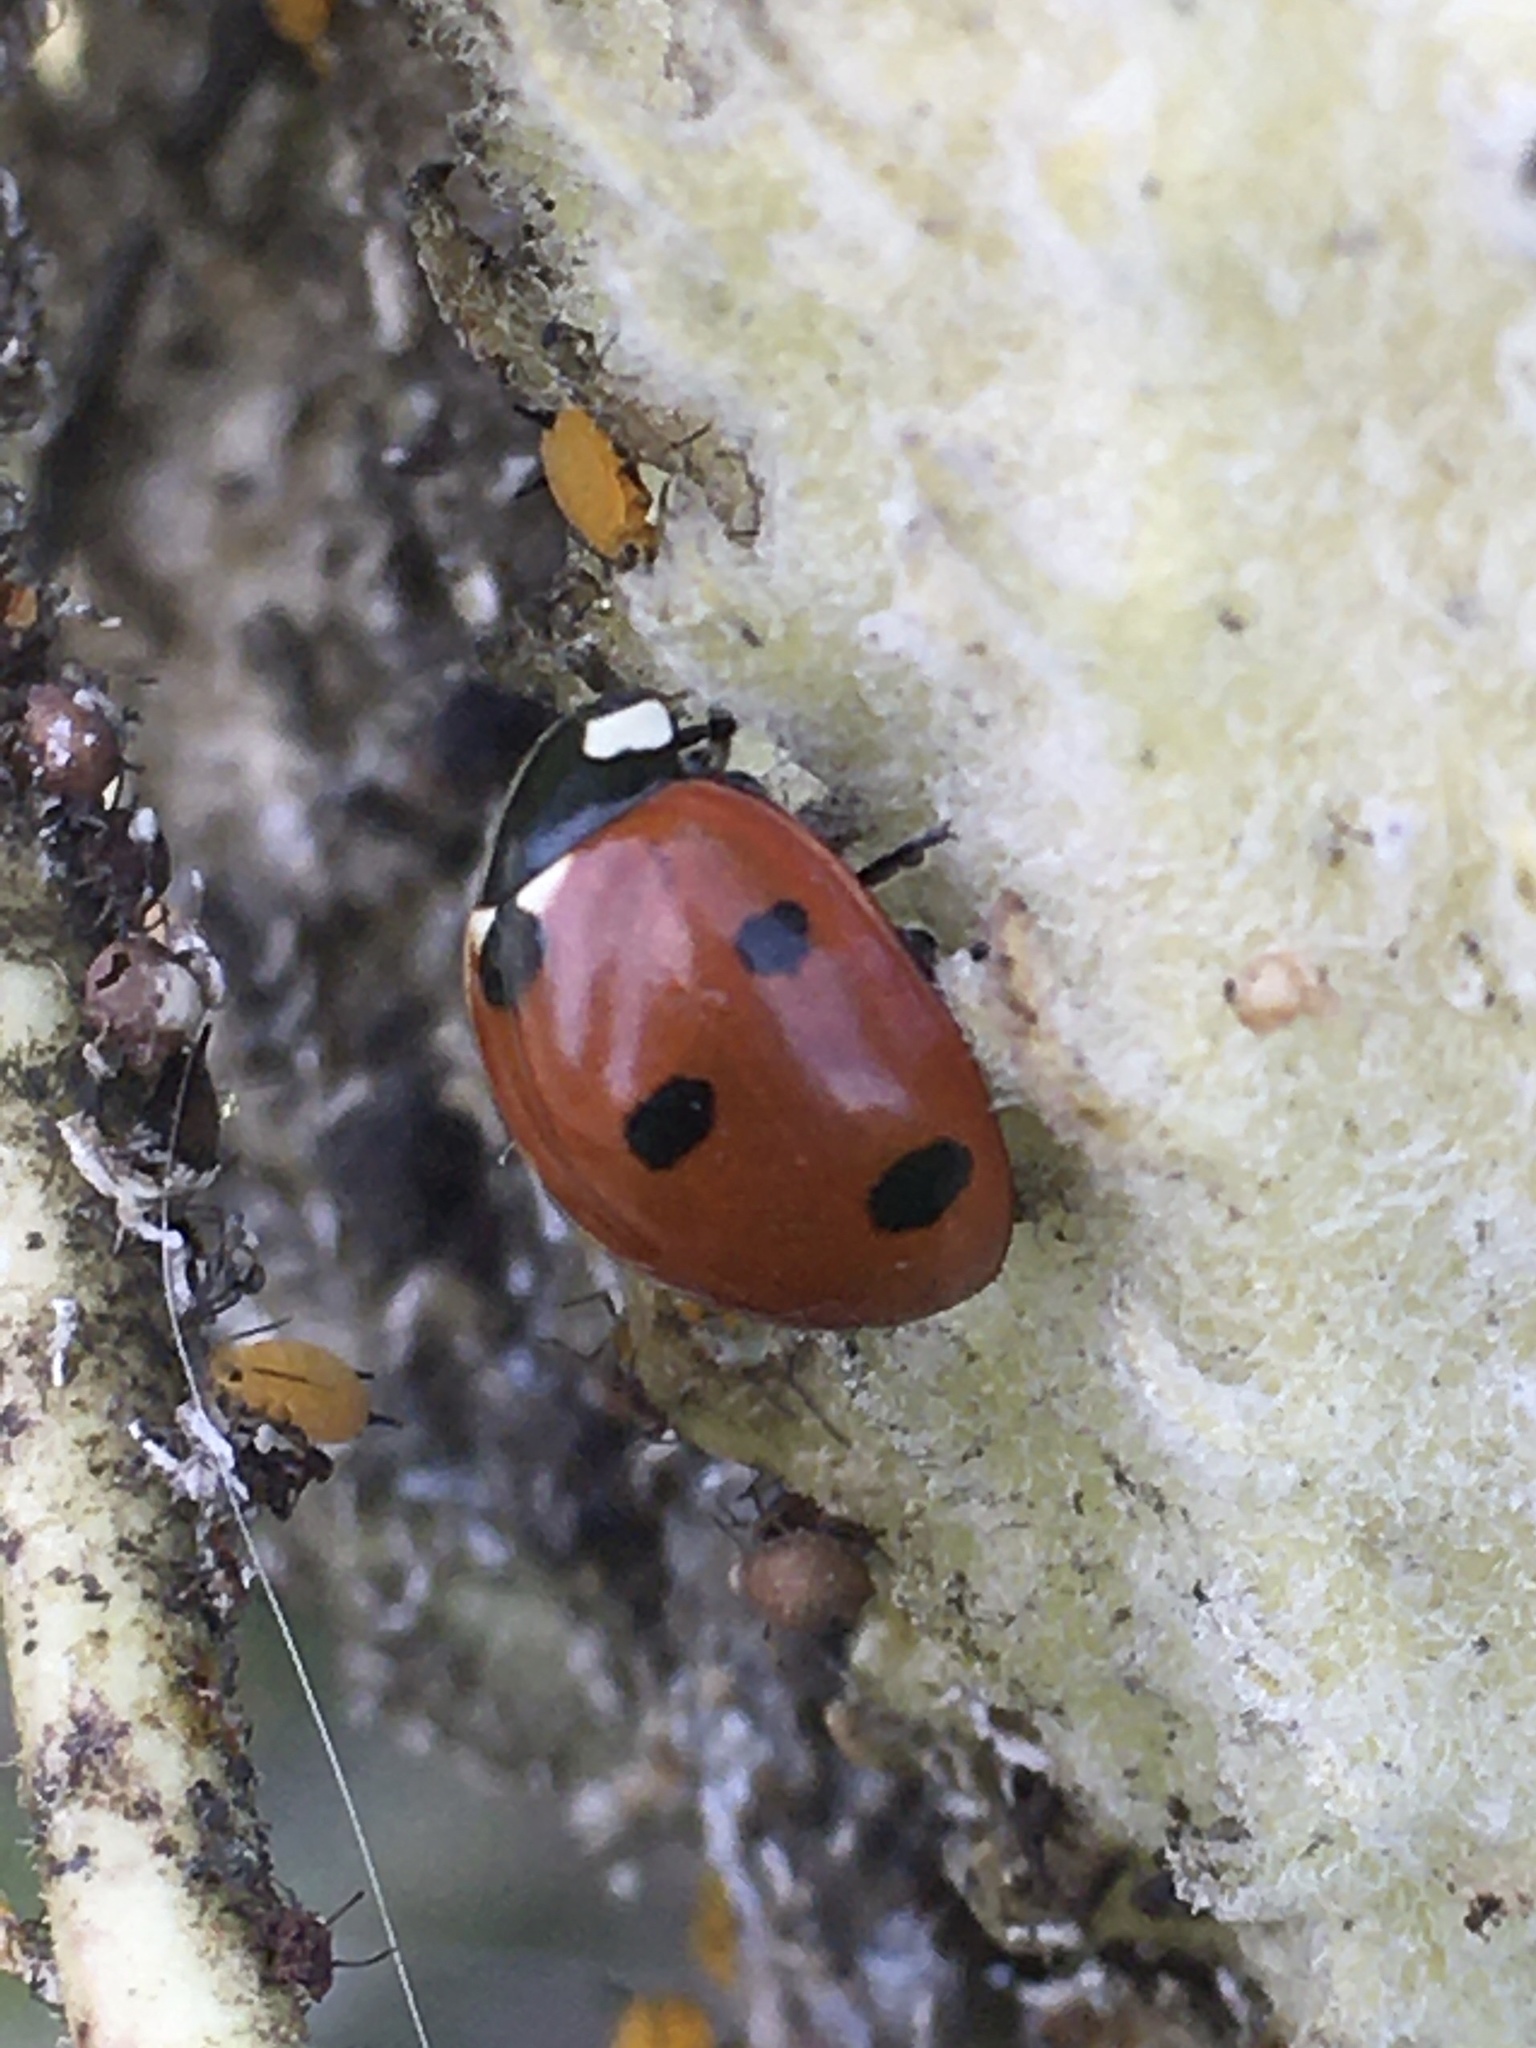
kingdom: Animalia
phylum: Arthropoda
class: Insecta
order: Coleoptera
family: Coccinellidae
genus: Coccinella
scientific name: Coccinella septempunctata
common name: Sevenspotted lady beetle
